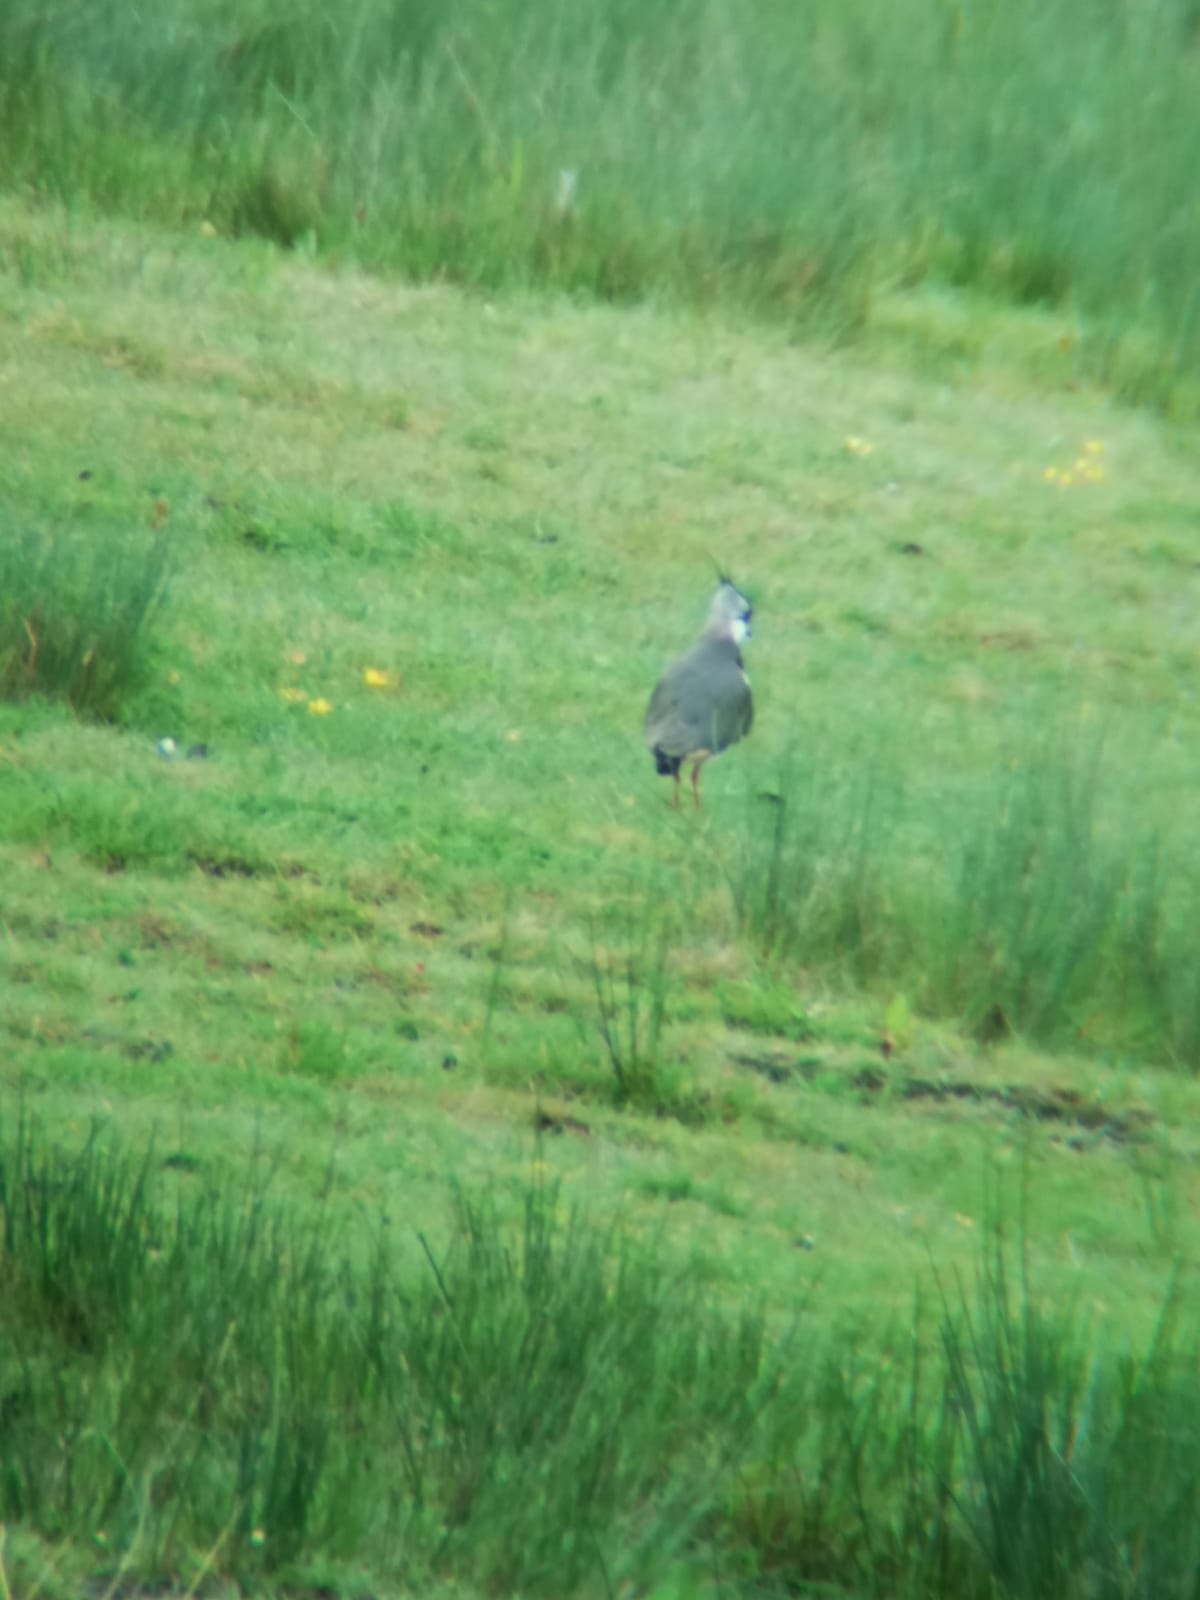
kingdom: Animalia
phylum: Chordata
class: Aves
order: Charadriiformes
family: Charadriidae
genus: Vanellus
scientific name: Vanellus vanellus
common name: Northern lapwing
